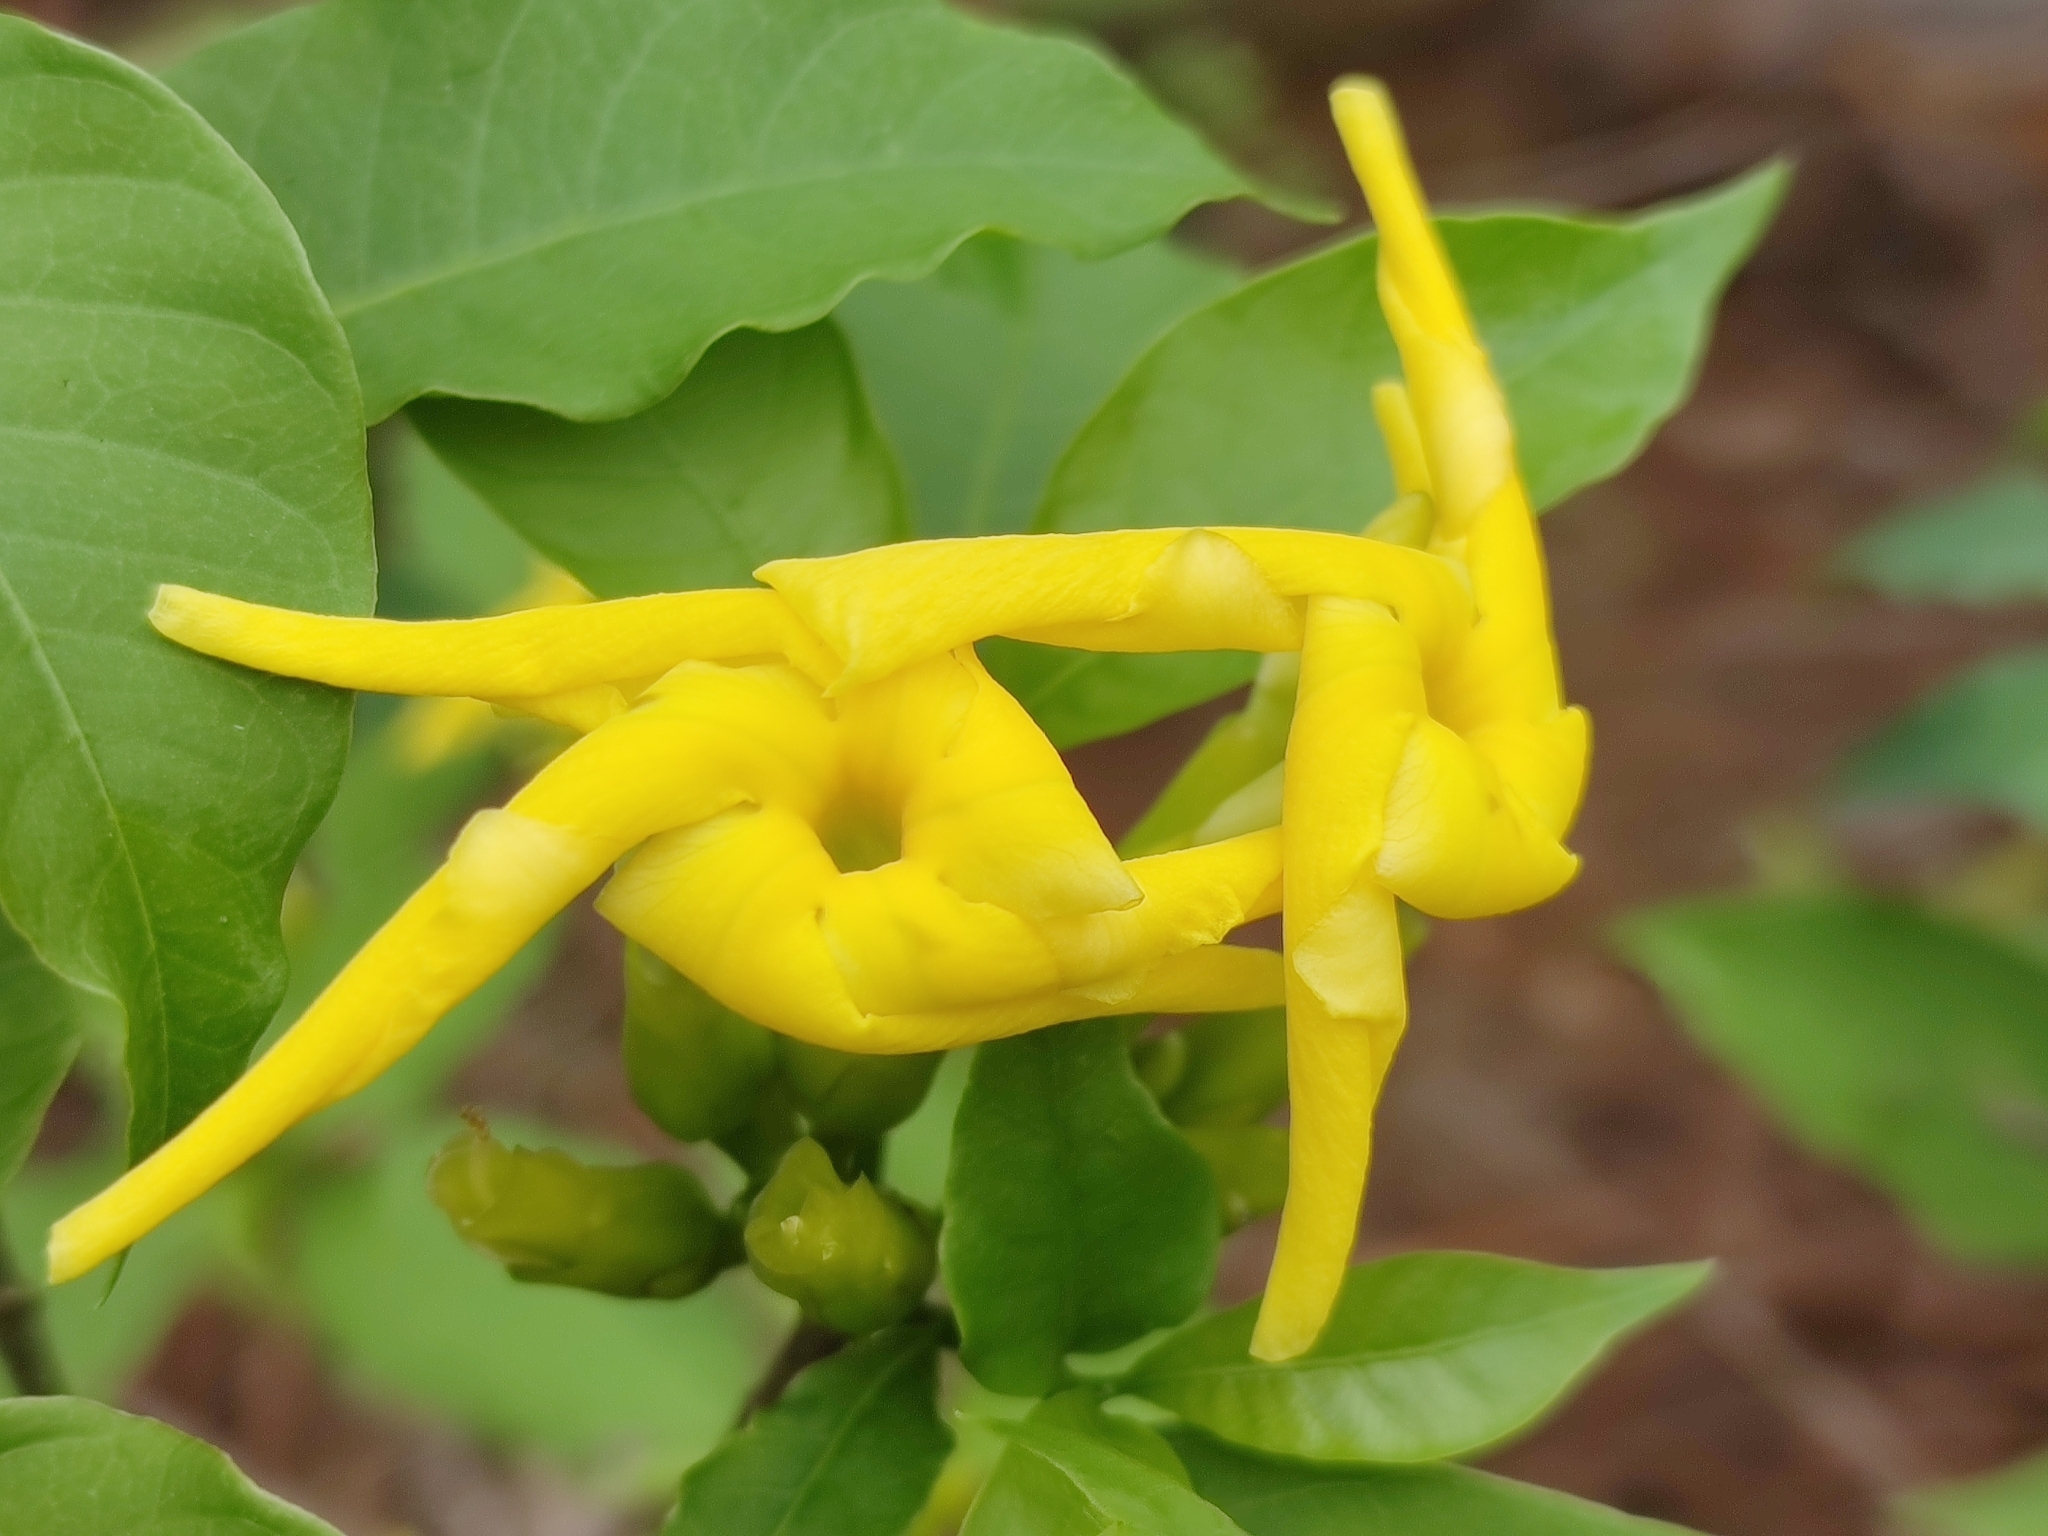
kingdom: Plantae
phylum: Tracheophyta
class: Magnoliopsida
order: Gentianales
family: Apocynaceae
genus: Tabernaemontana
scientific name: Tabernaemontana ochoterenae
